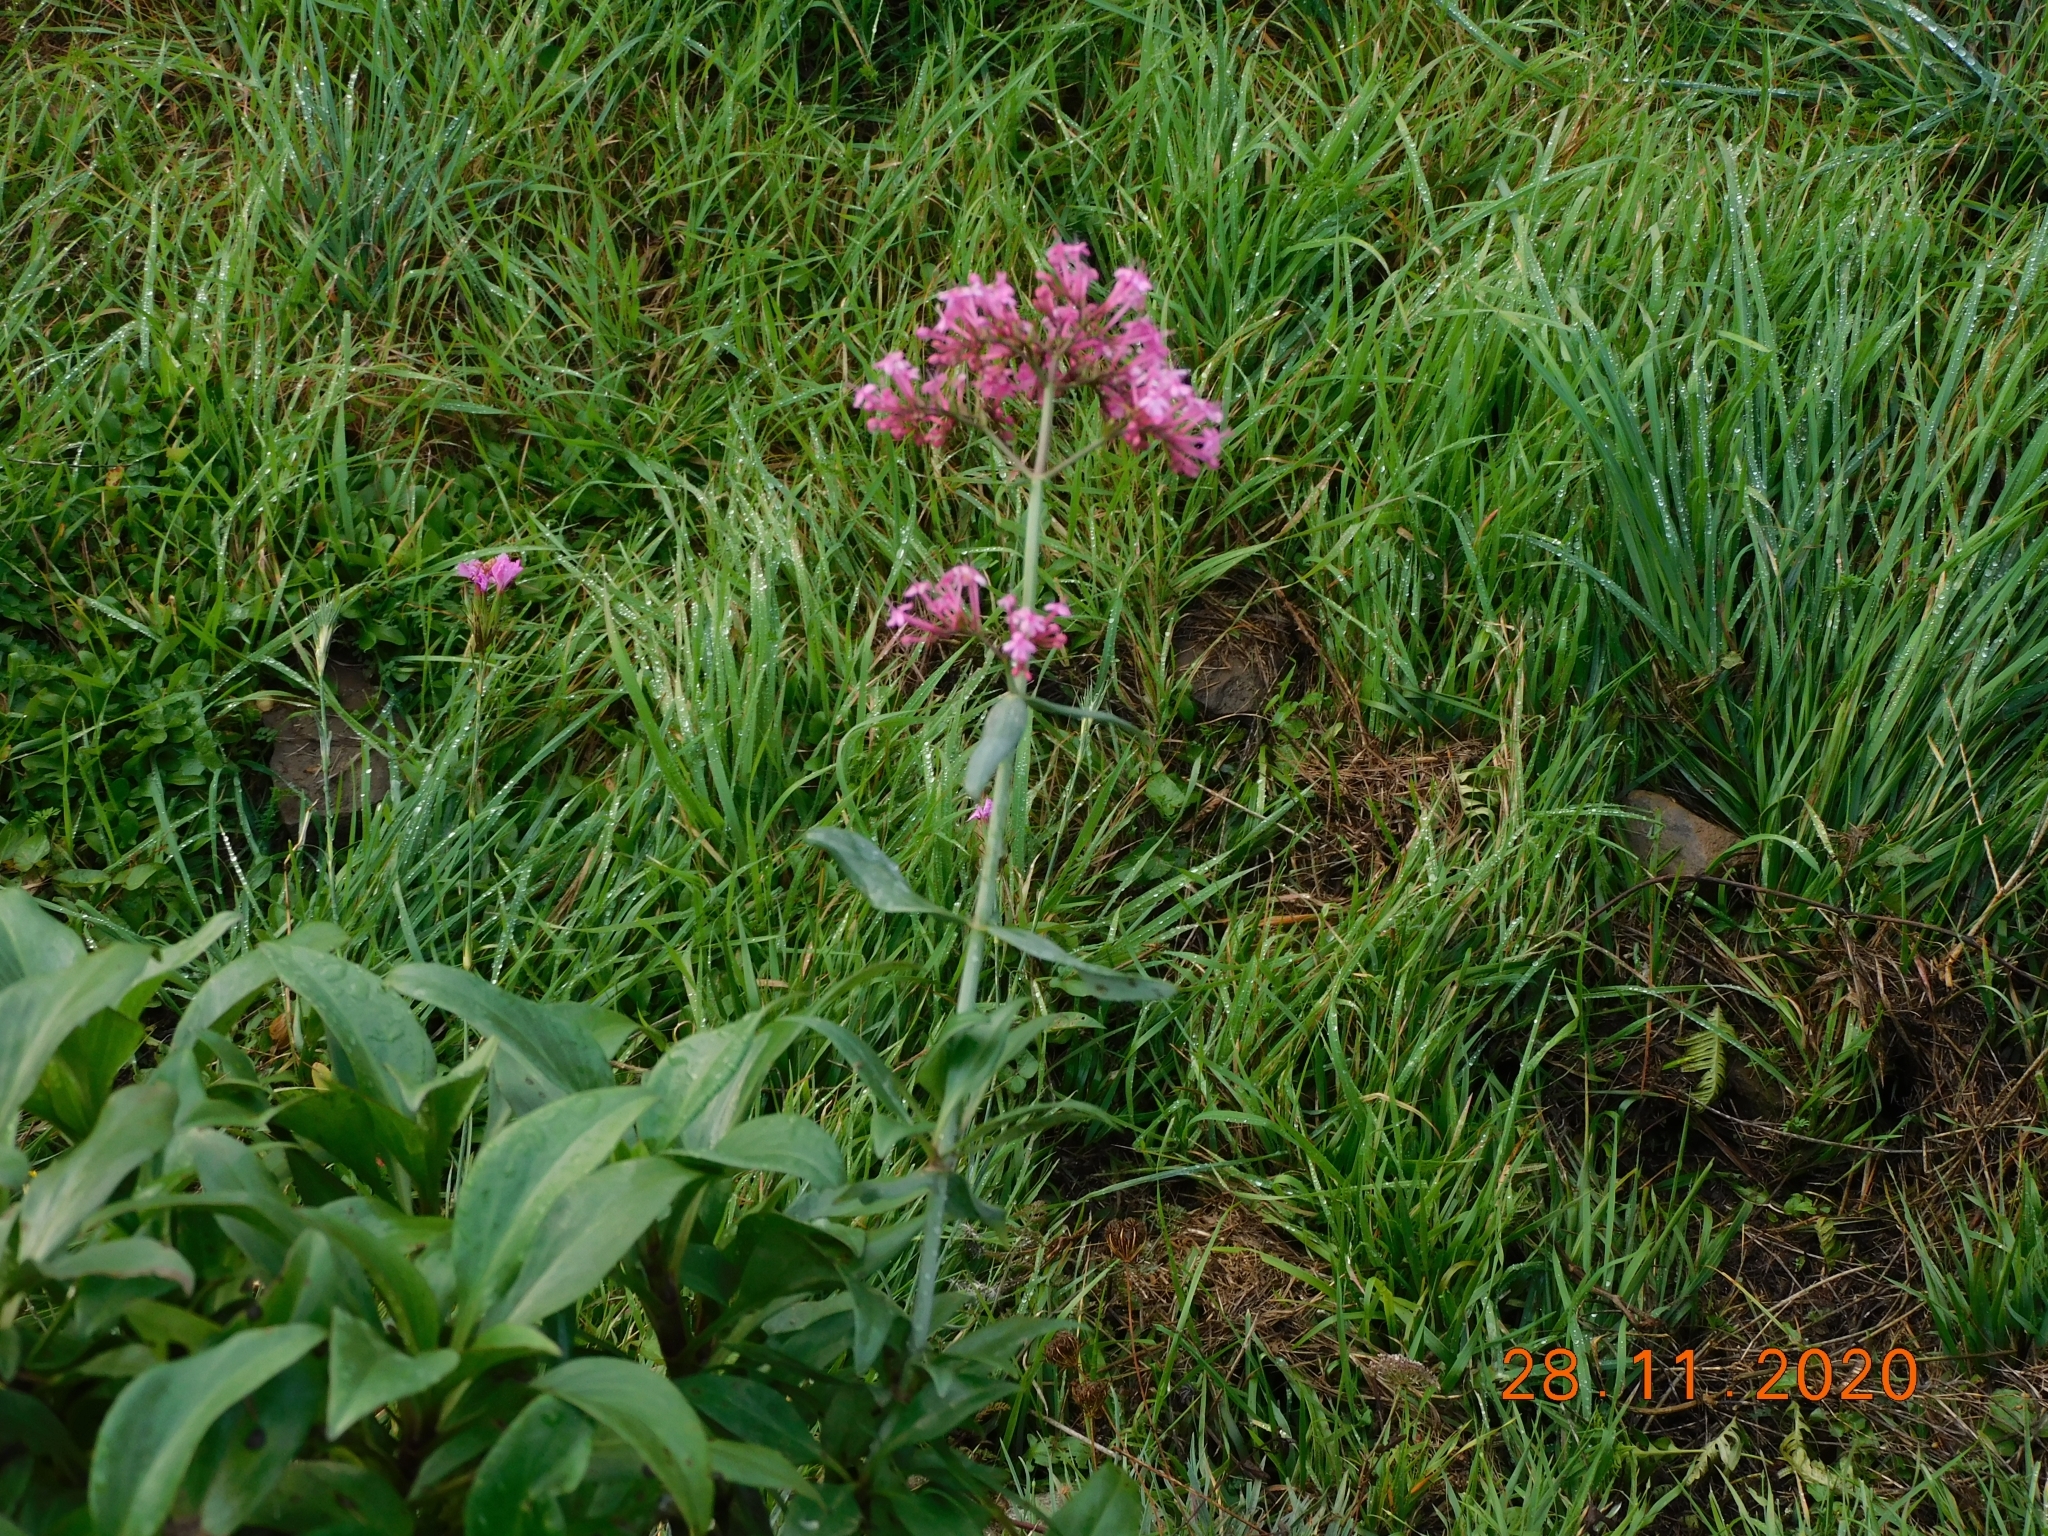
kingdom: Plantae
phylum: Tracheophyta
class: Magnoliopsida
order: Dipsacales
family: Caprifoliaceae
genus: Centranthus
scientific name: Centranthus ruber
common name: Red valerian
